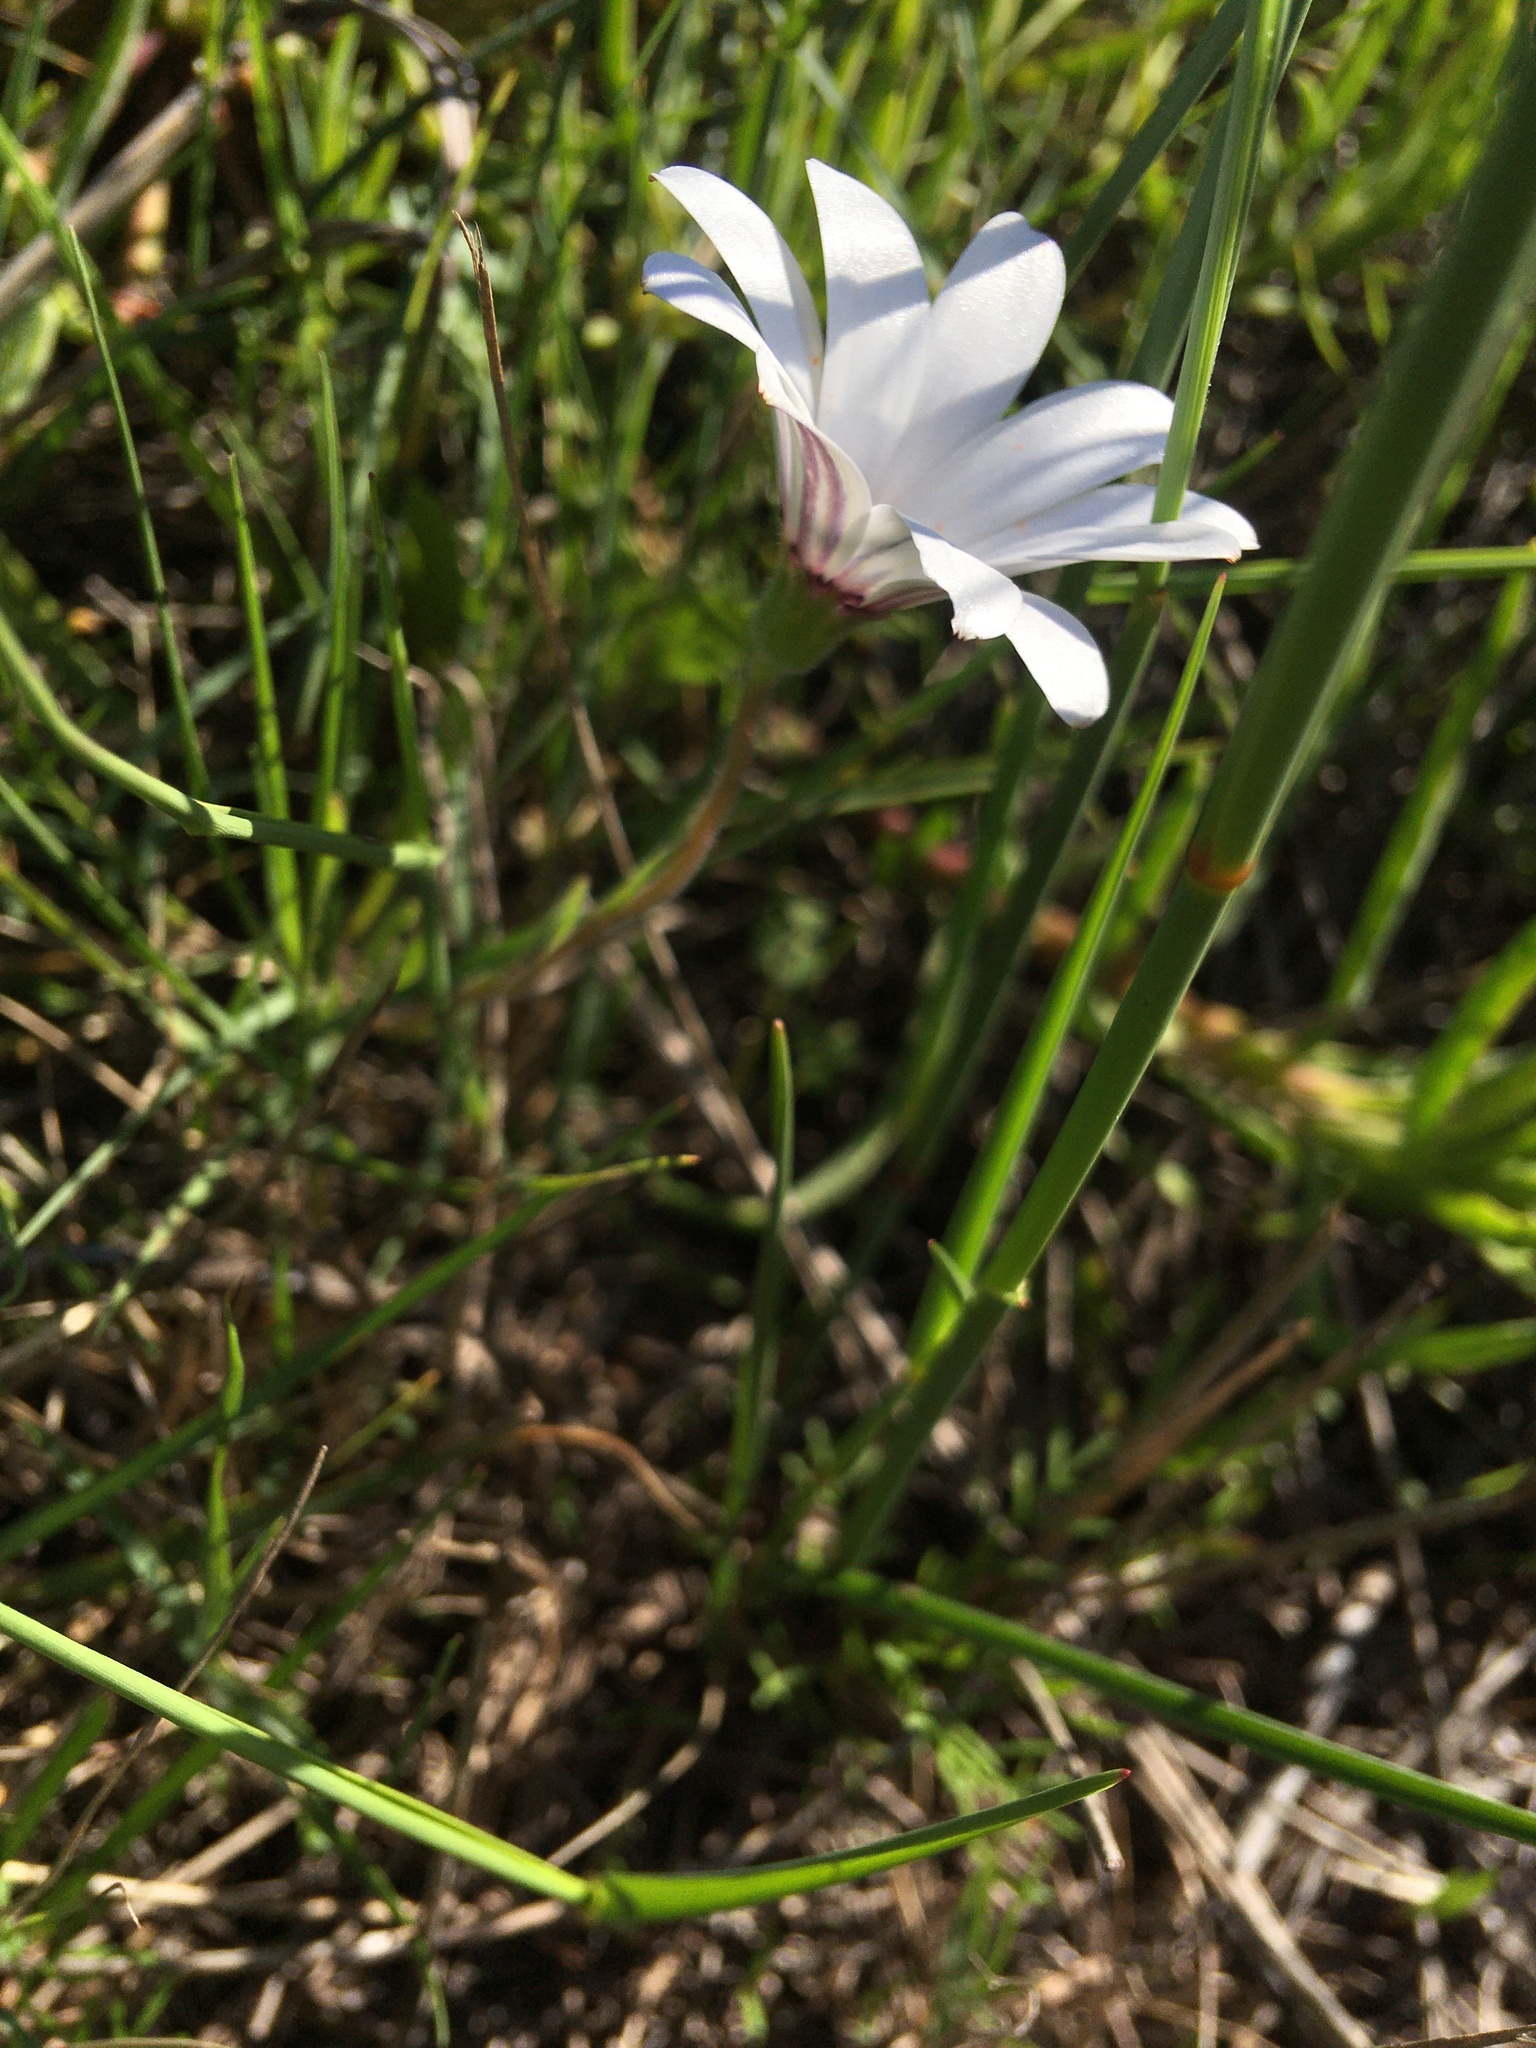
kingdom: Plantae
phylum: Tracheophyta
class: Magnoliopsida
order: Asterales
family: Asteraceae
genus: Dimorphotheca
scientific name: Dimorphotheca pluvialis
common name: Weather prophet
